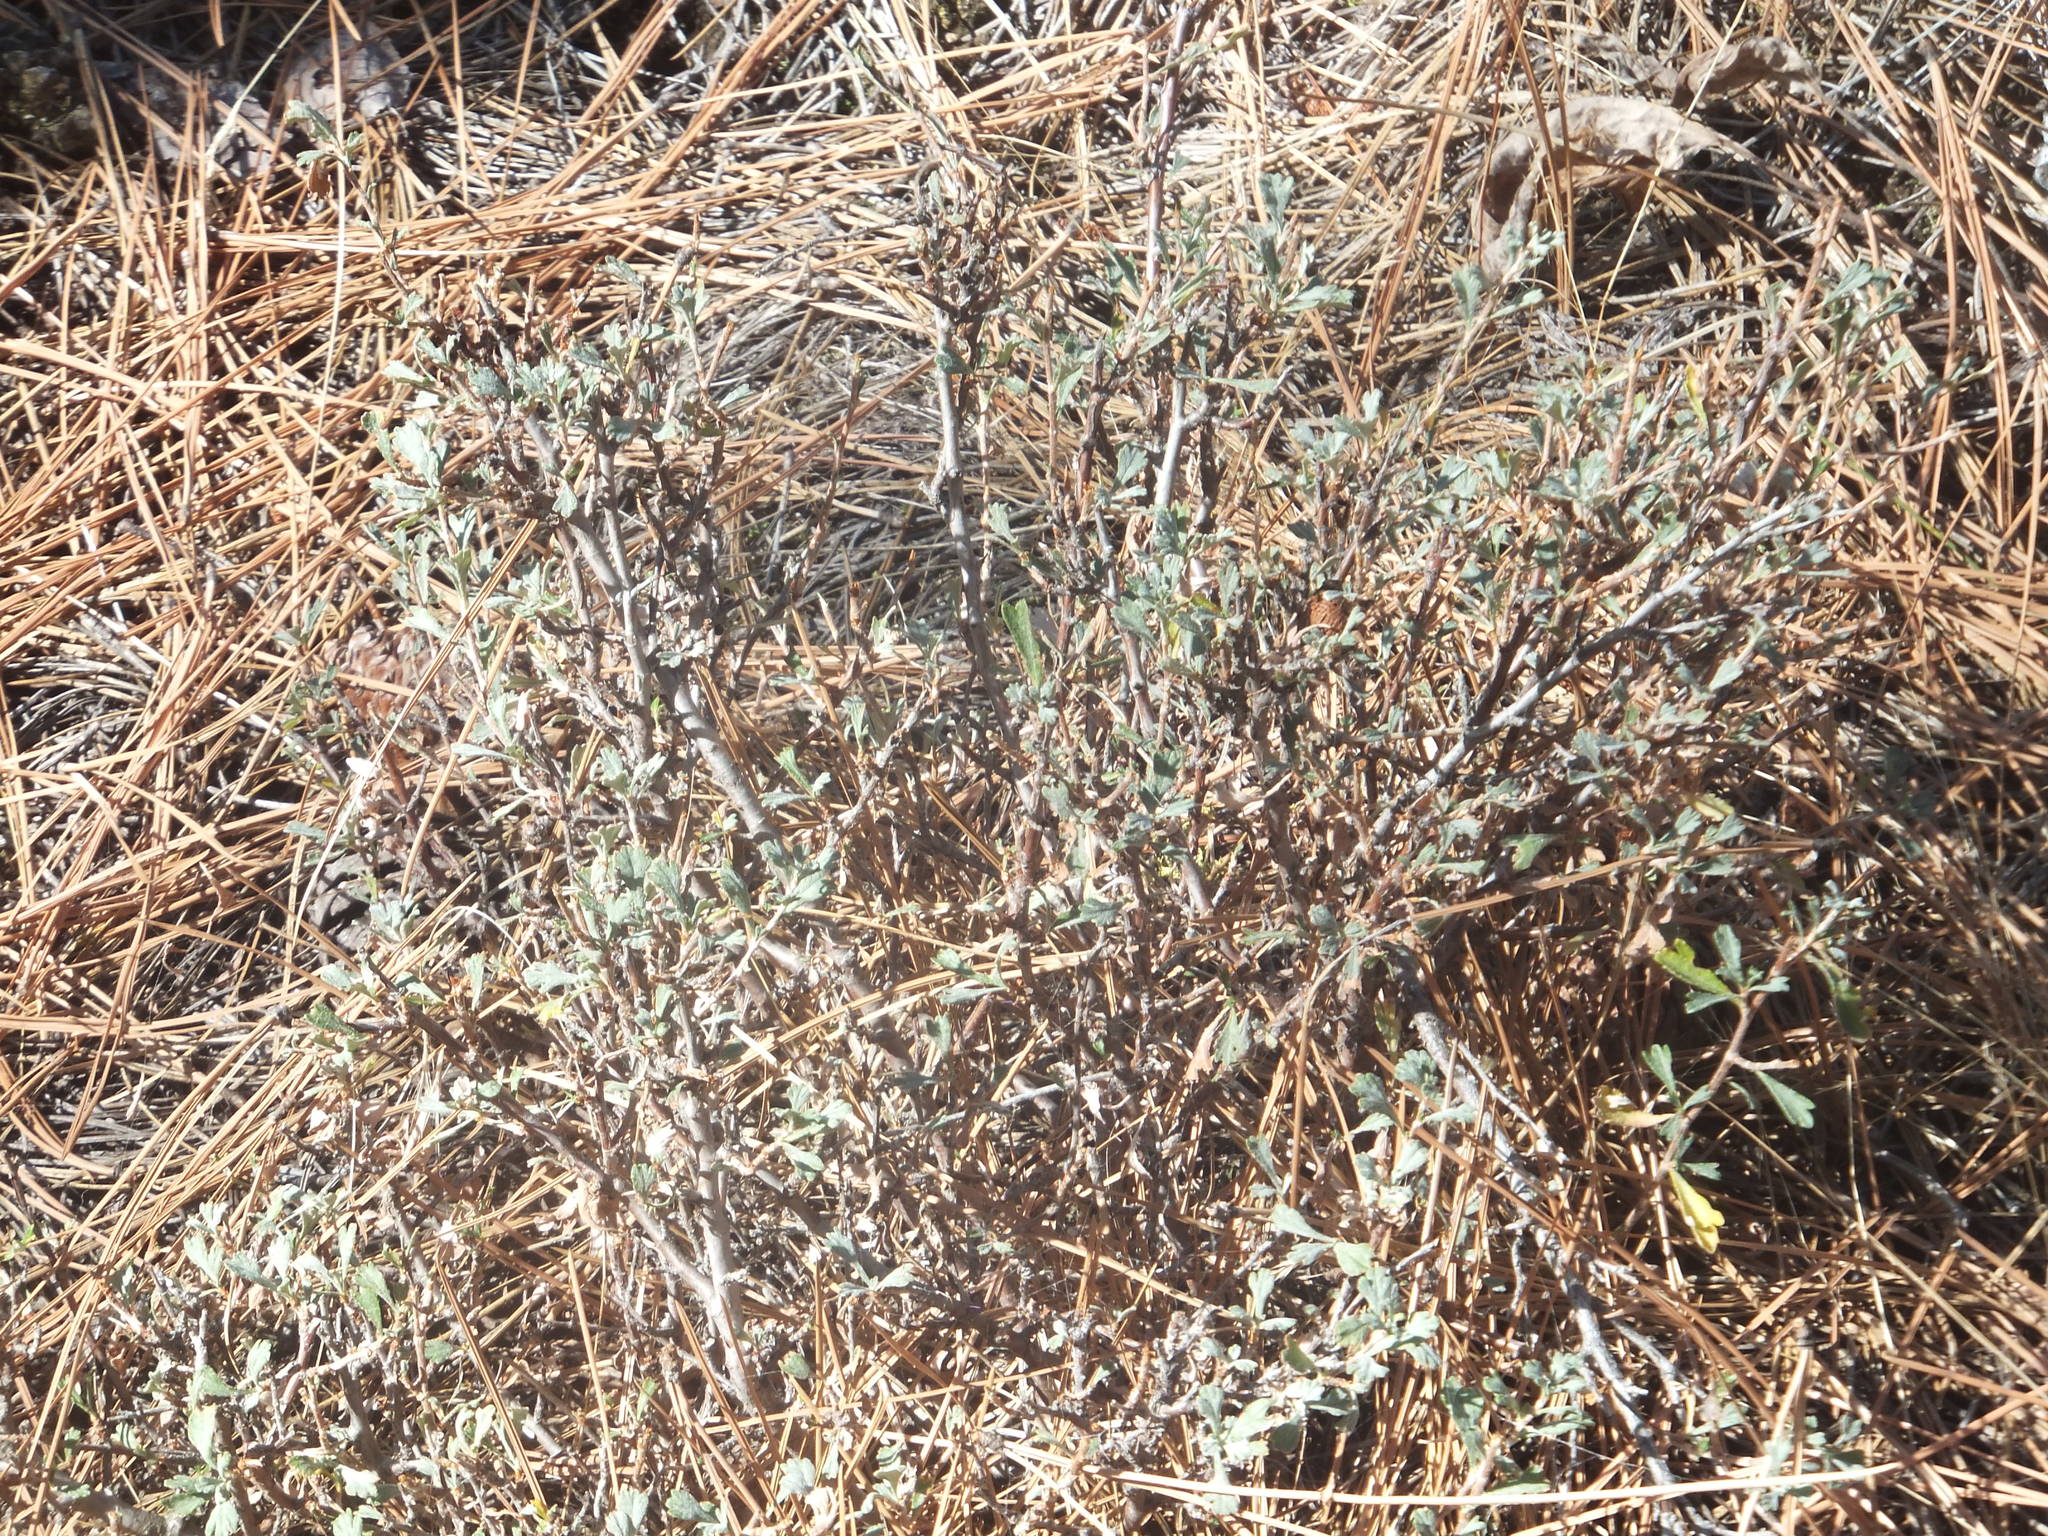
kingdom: Plantae
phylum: Tracheophyta
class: Magnoliopsida
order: Rosales
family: Rosaceae
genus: Purshia
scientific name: Purshia tridentata
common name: Antelope bitterbrush
